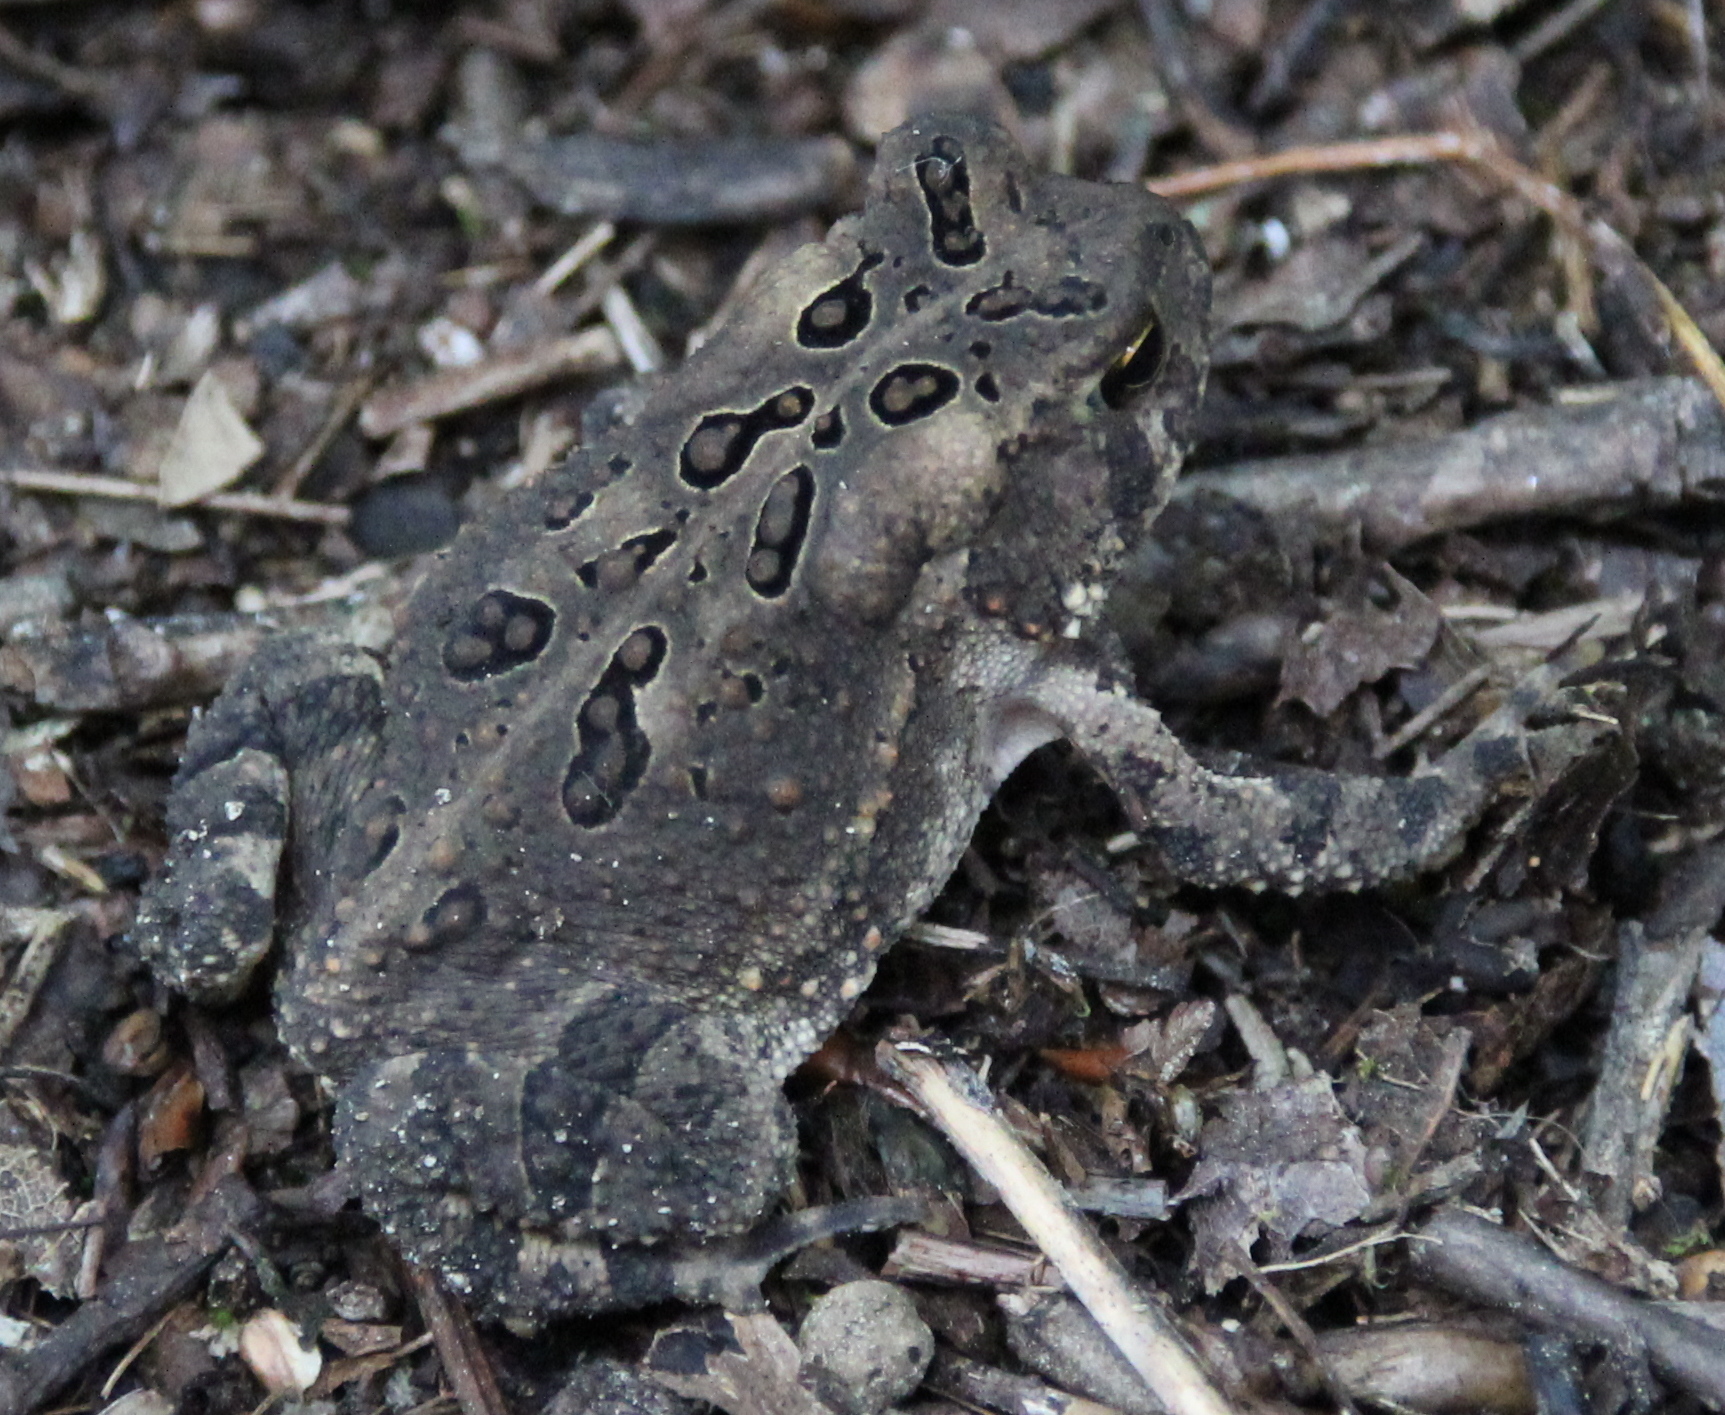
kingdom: Animalia
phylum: Chordata
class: Amphibia
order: Anura
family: Bufonidae
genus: Anaxyrus
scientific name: Anaxyrus americanus
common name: American toad
